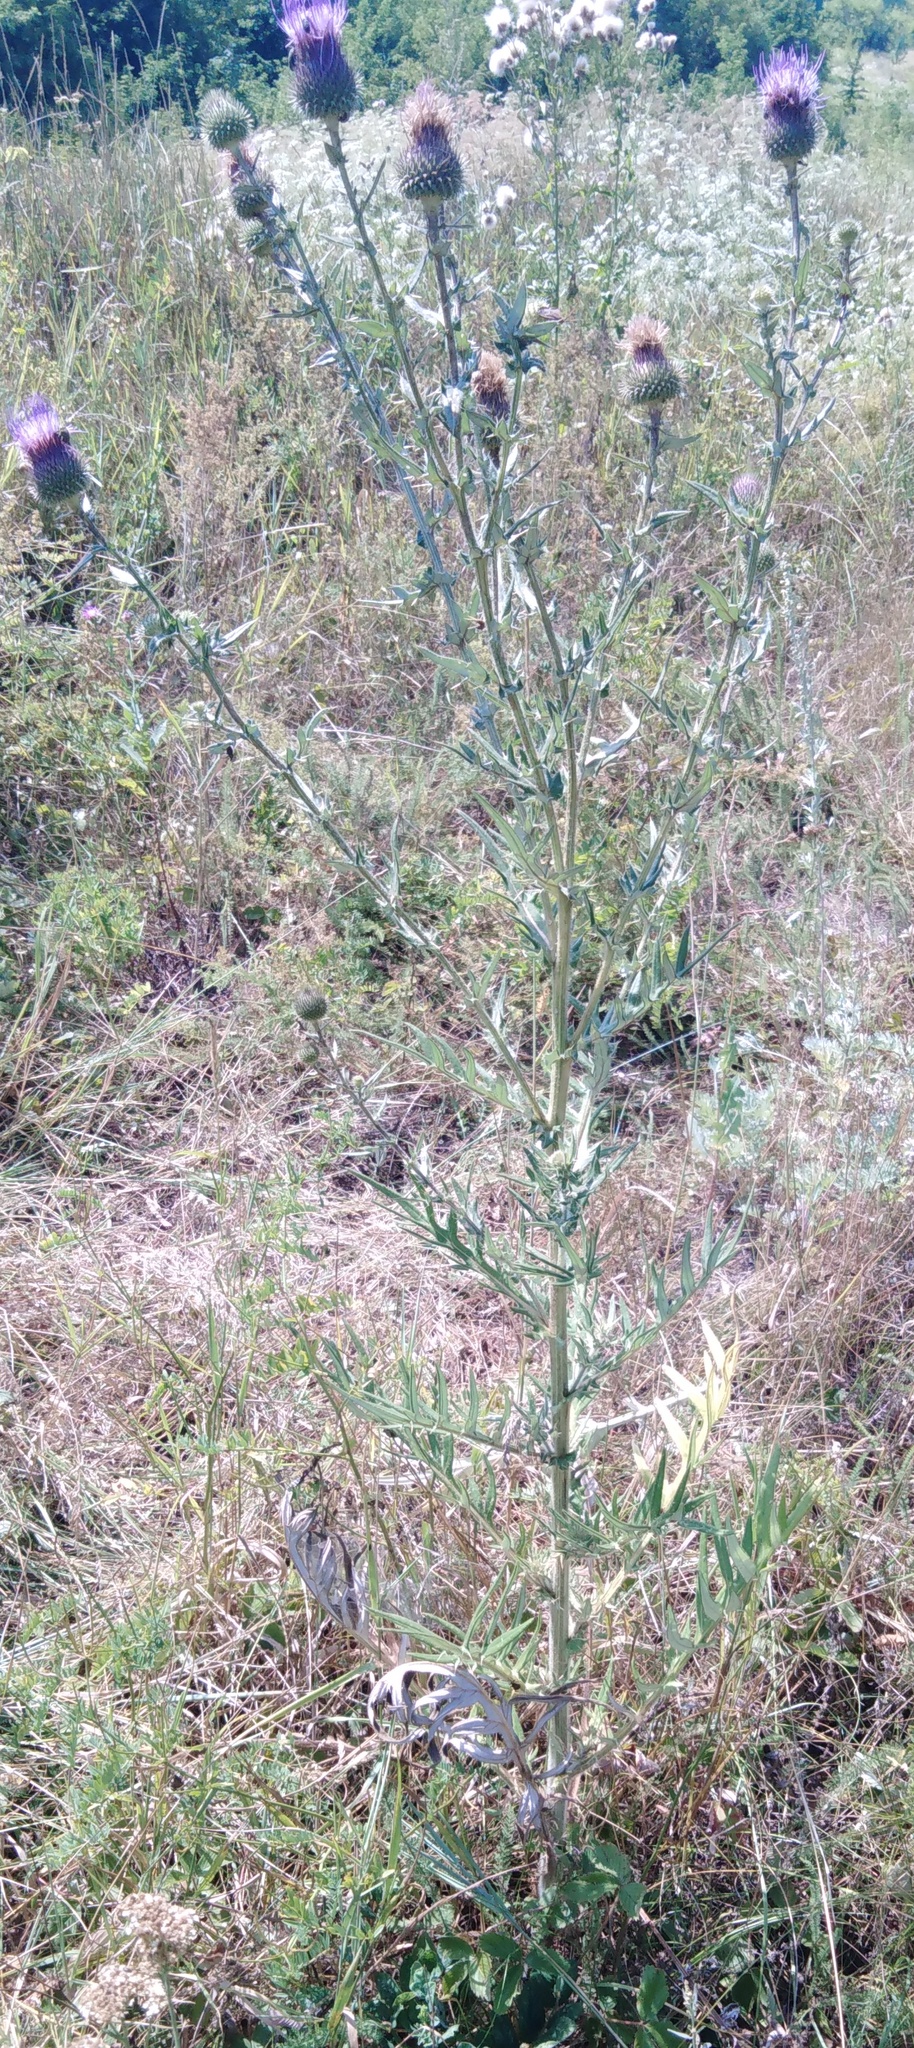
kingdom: Plantae
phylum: Tracheophyta
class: Magnoliopsida
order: Asterales
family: Asteraceae
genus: Lophiolepis
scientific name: Lophiolepis ciliata
